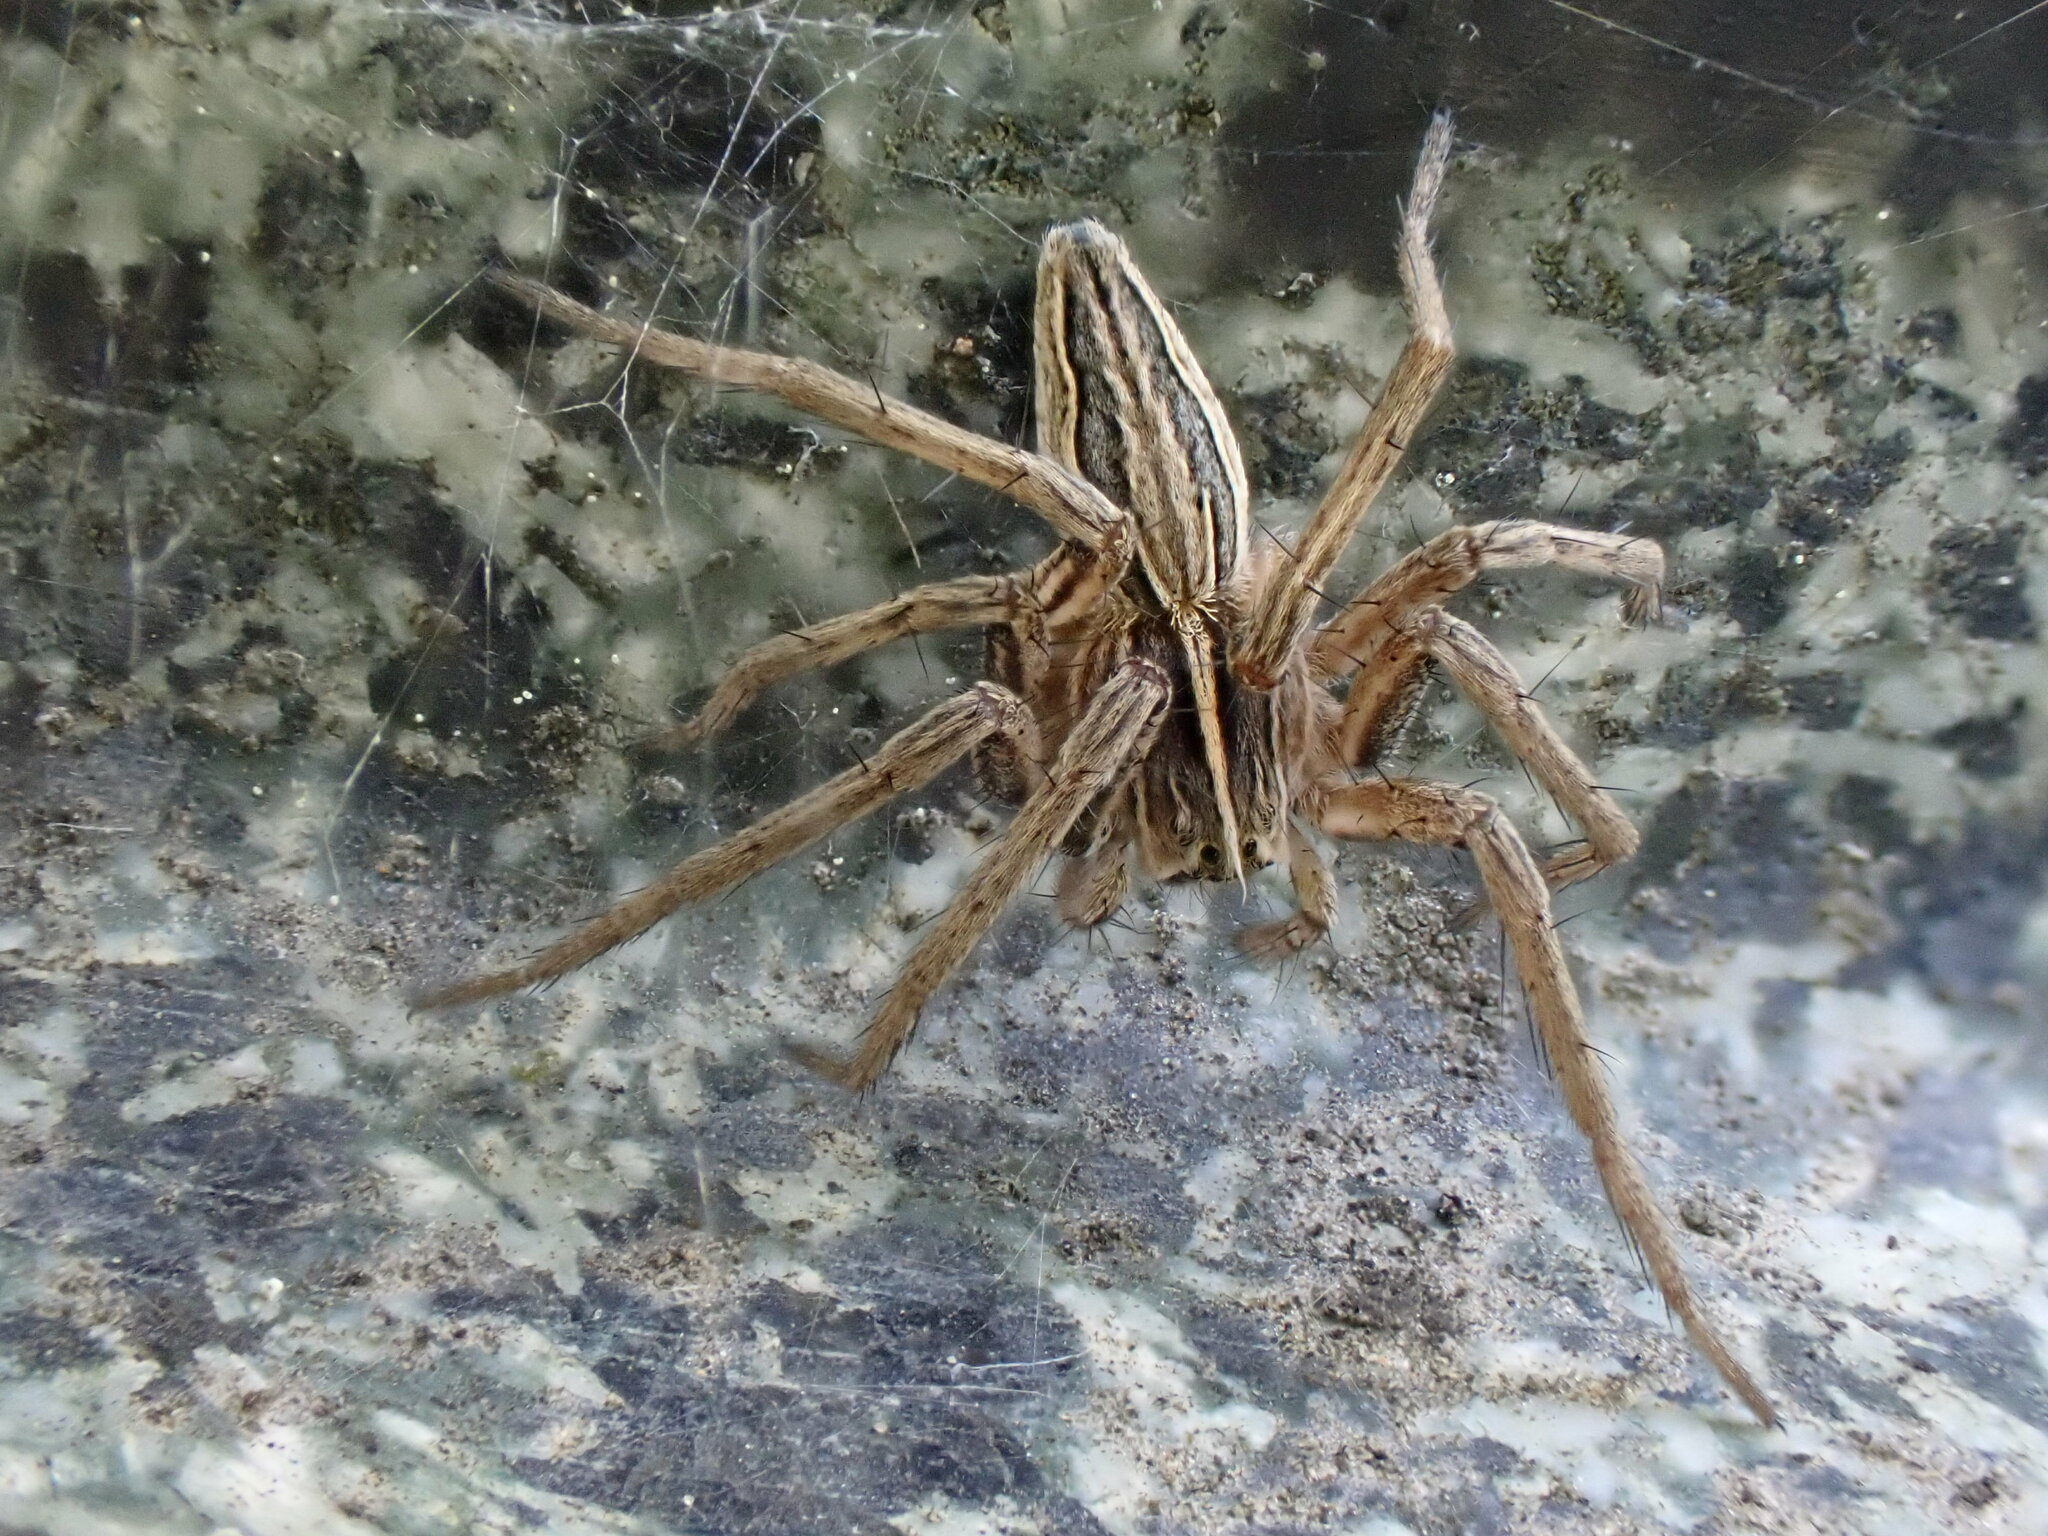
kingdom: Animalia
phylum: Arthropoda
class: Arachnida
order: Araneae
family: Pisauridae
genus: Pisaura
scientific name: Pisaura mirabilis
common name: Tent spider
